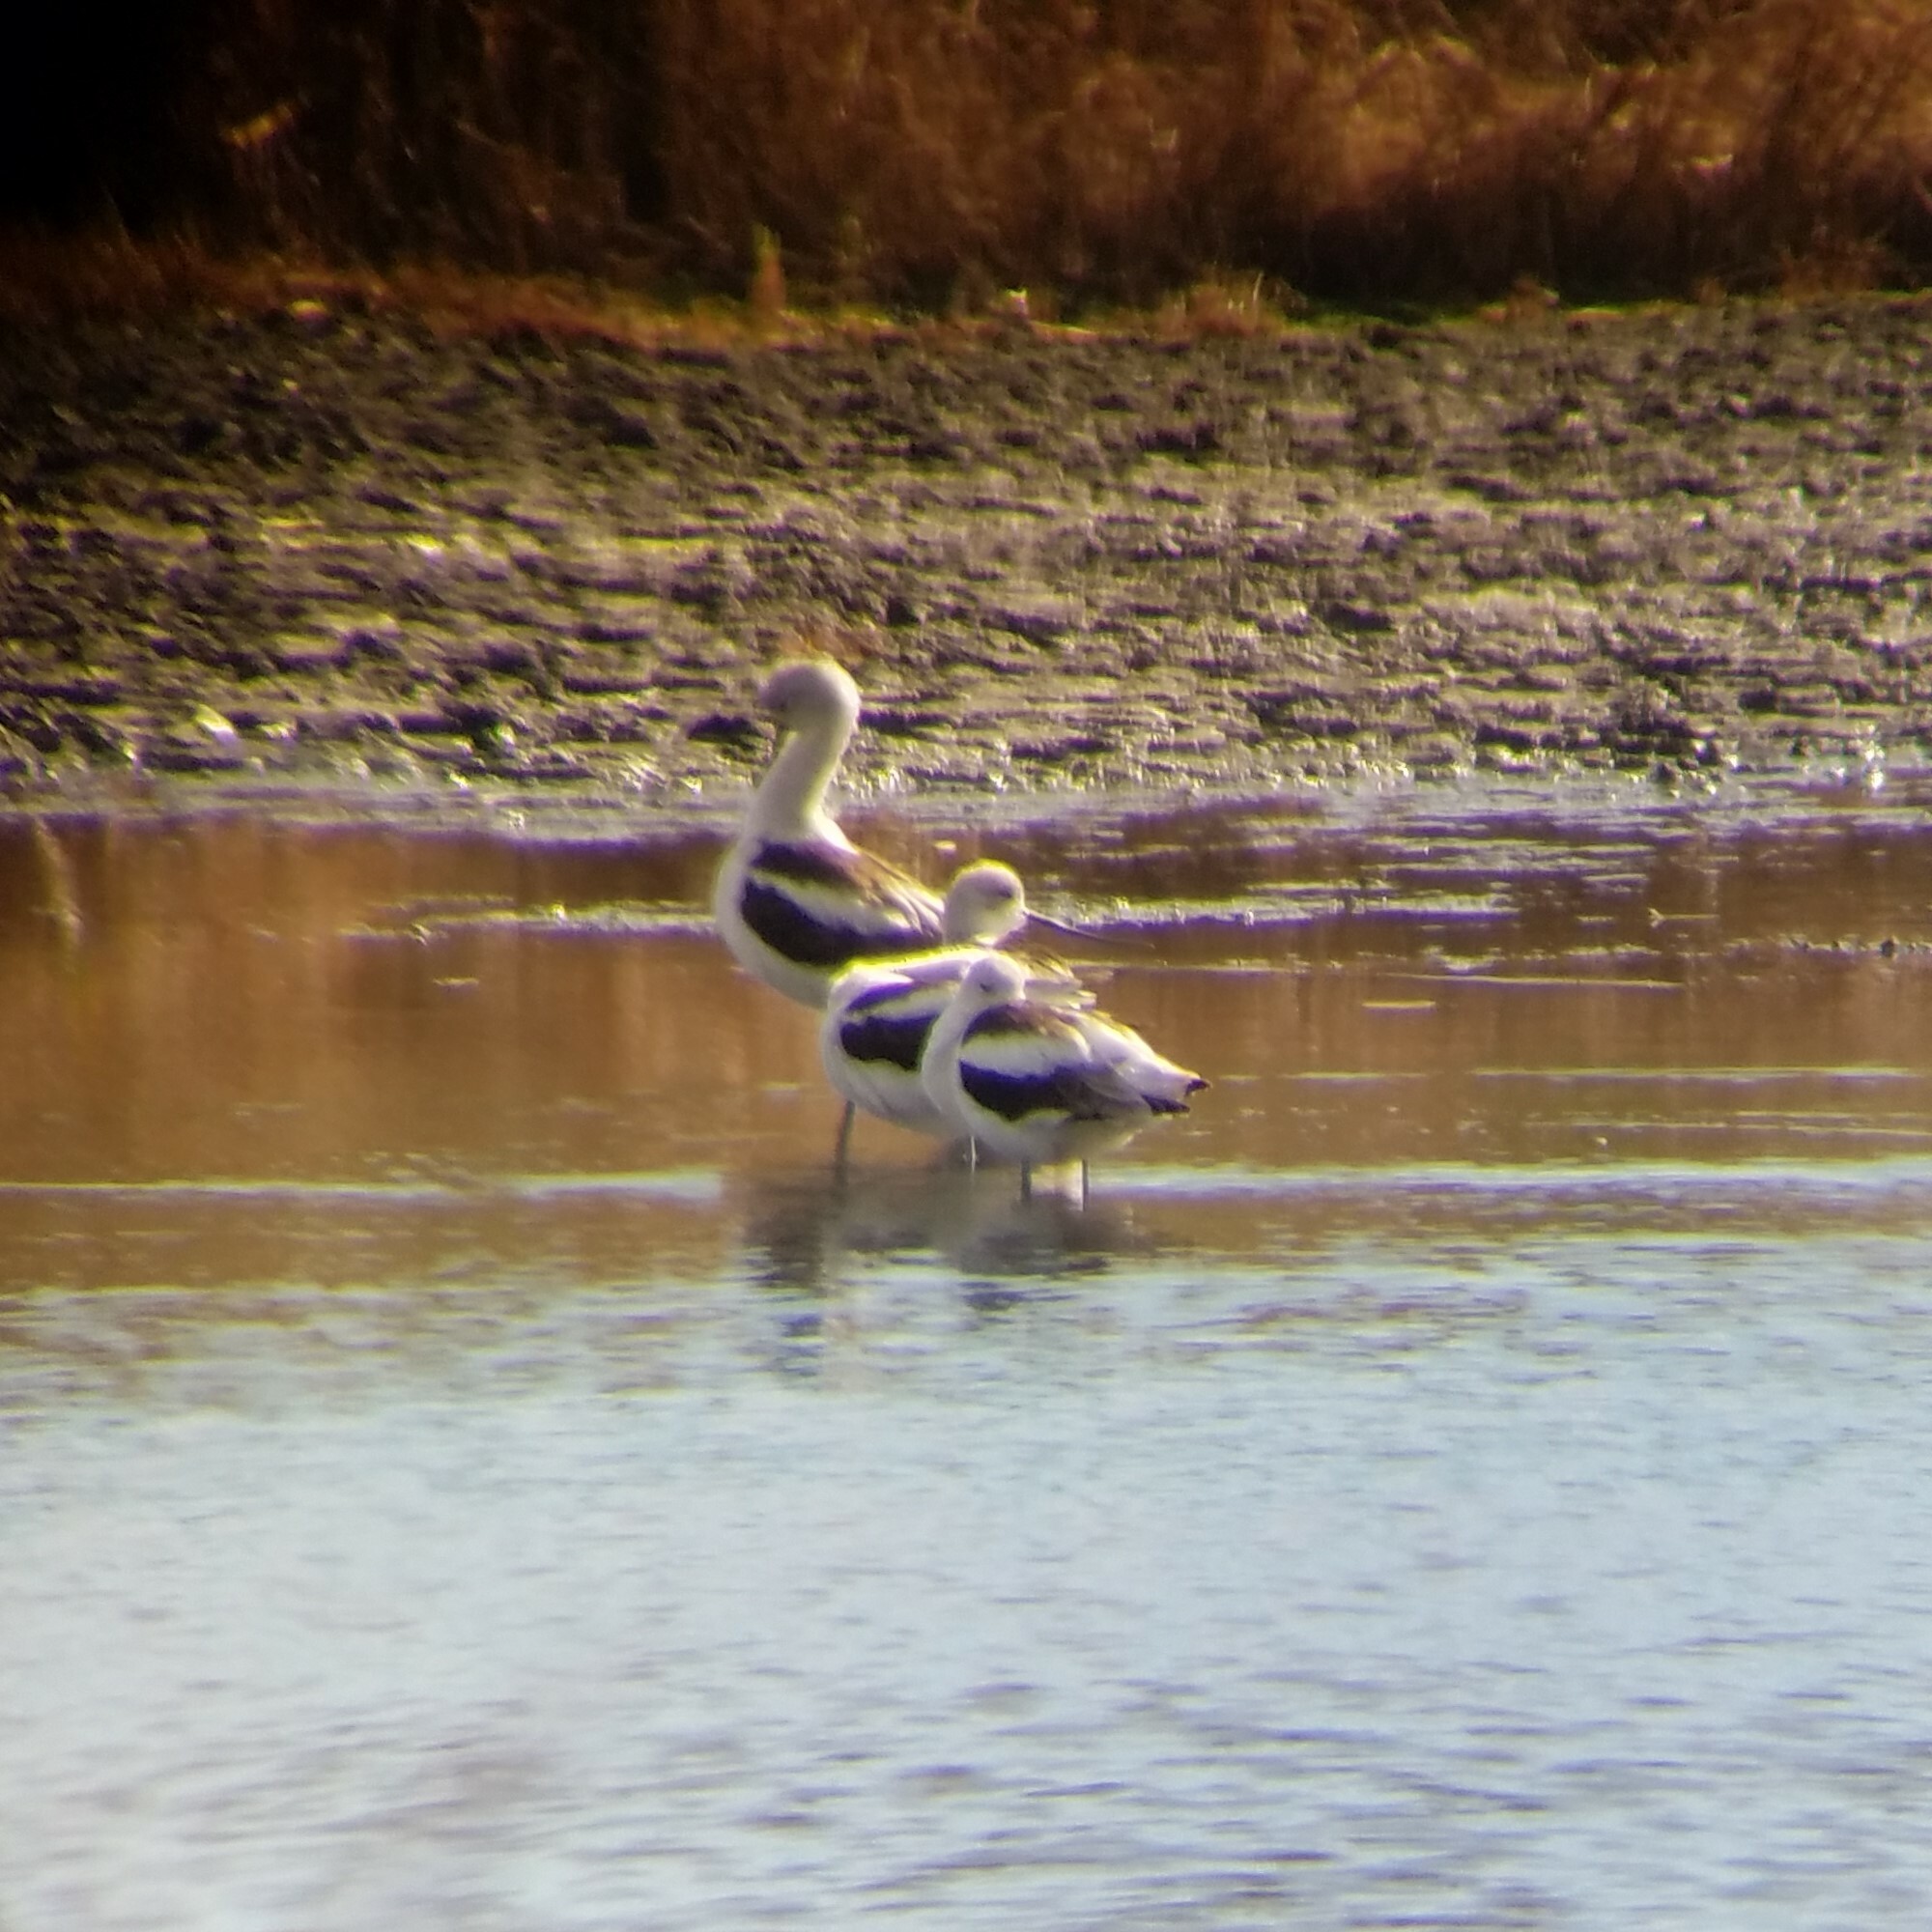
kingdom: Animalia
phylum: Chordata
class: Aves
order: Charadriiformes
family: Recurvirostridae
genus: Recurvirostra
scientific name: Recurvirostra americana
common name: American avocet
